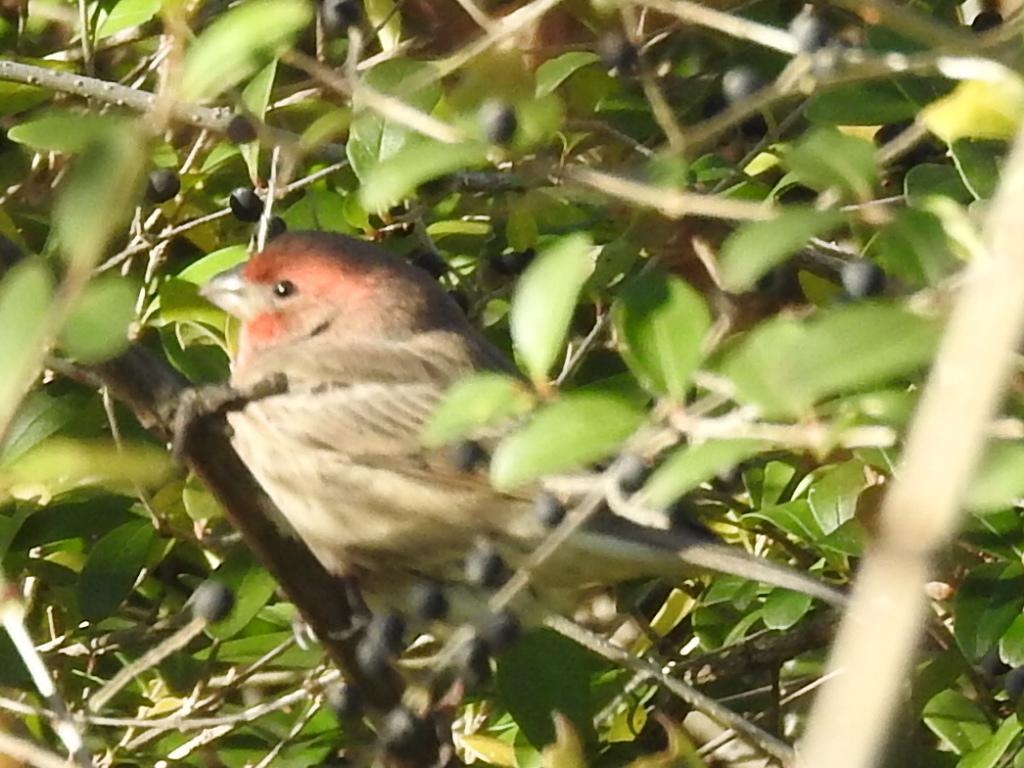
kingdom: Animalia
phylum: Chordata
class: Aves
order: Passeriformes
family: Fringillidae
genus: Haemorhous
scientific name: Haemorhous mexicanus
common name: House finch
